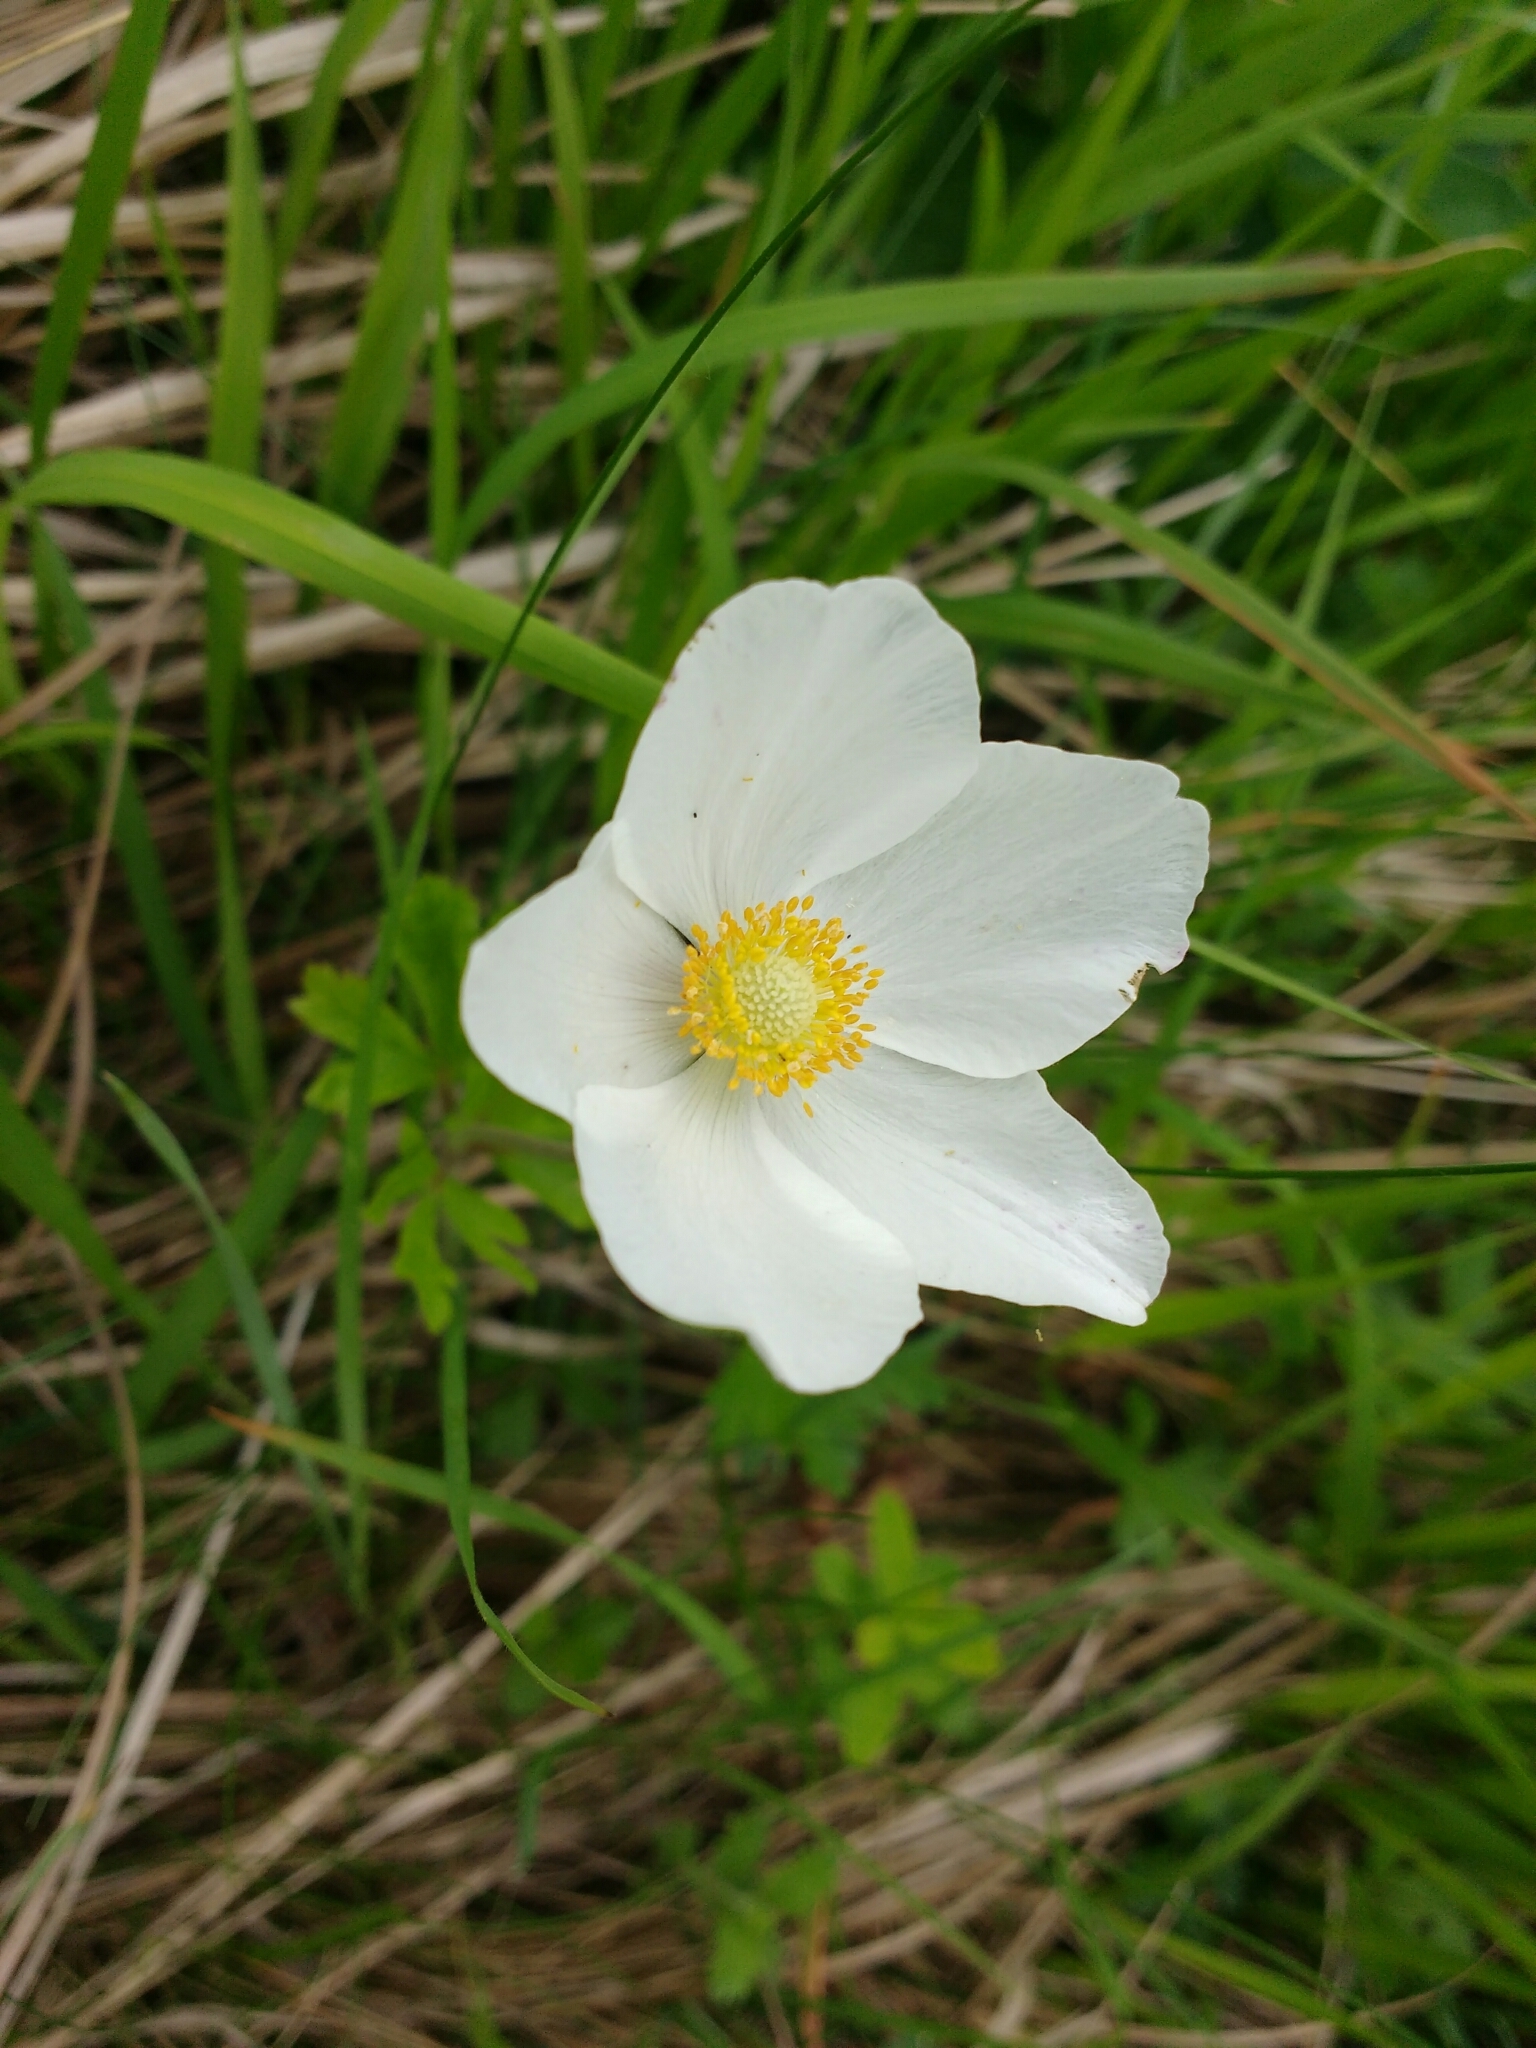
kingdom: Plantae
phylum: Tracheophyta
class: Magnoliopsida
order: Ranunculales
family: Ranunculaceae
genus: Anemone
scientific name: Anemone sylvestris
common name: Snowdrop anemone
